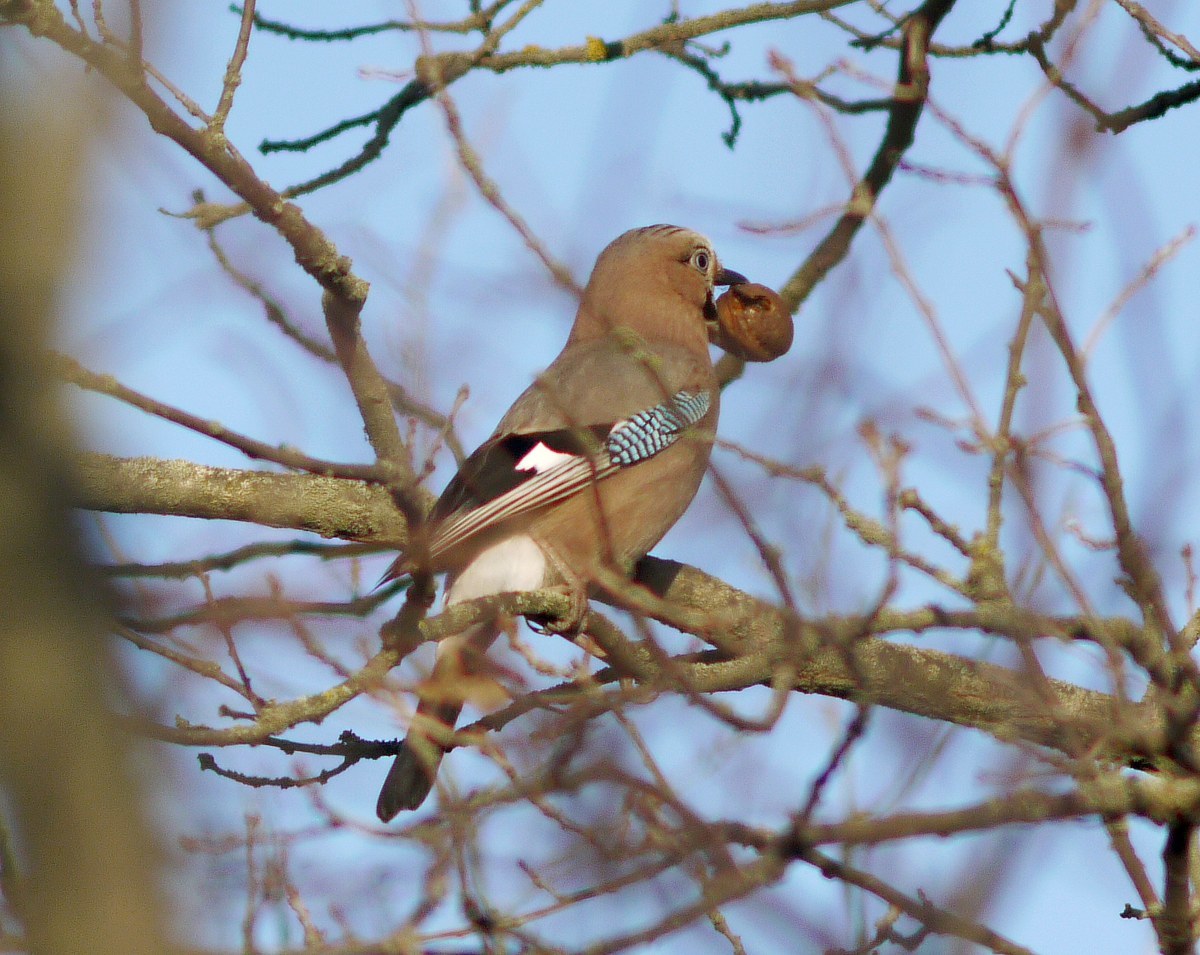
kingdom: Animalia
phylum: Chordata
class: Aves
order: Passeriformes
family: Corvidae
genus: Garrulus
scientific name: Garrulus glandarius
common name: Eurasian jay
